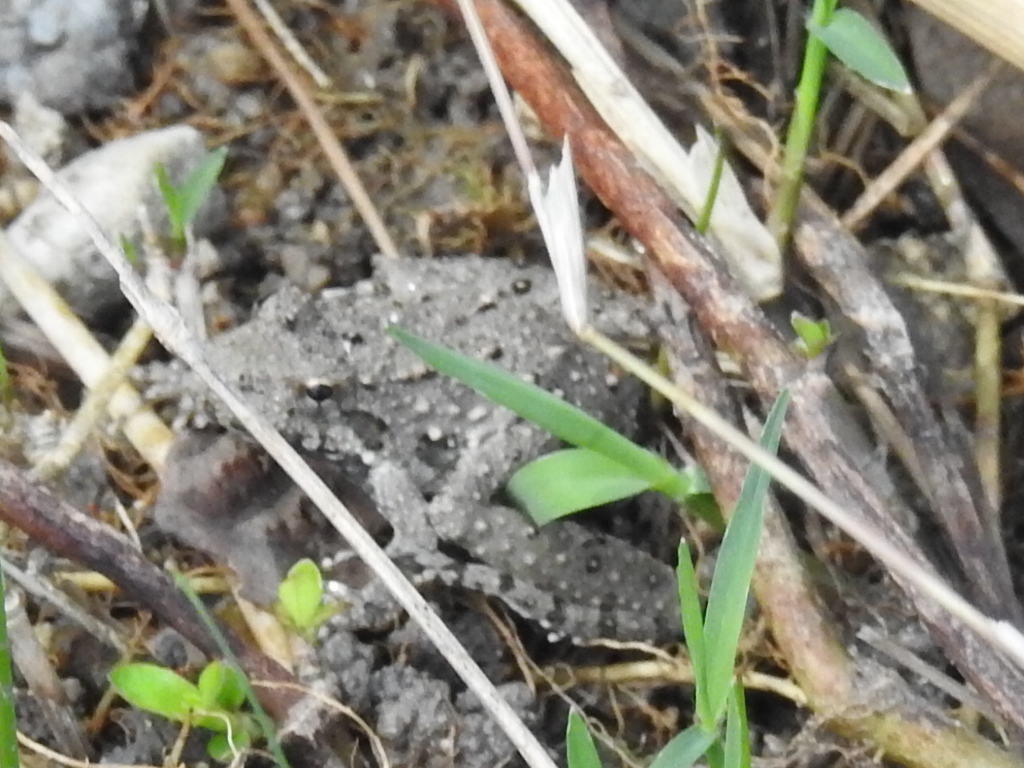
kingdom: Animalia
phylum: Chordata
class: Amphibia
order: Anura
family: Hylidae
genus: Acris
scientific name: Acris blanchardi
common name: Blanchard's cricket frog
